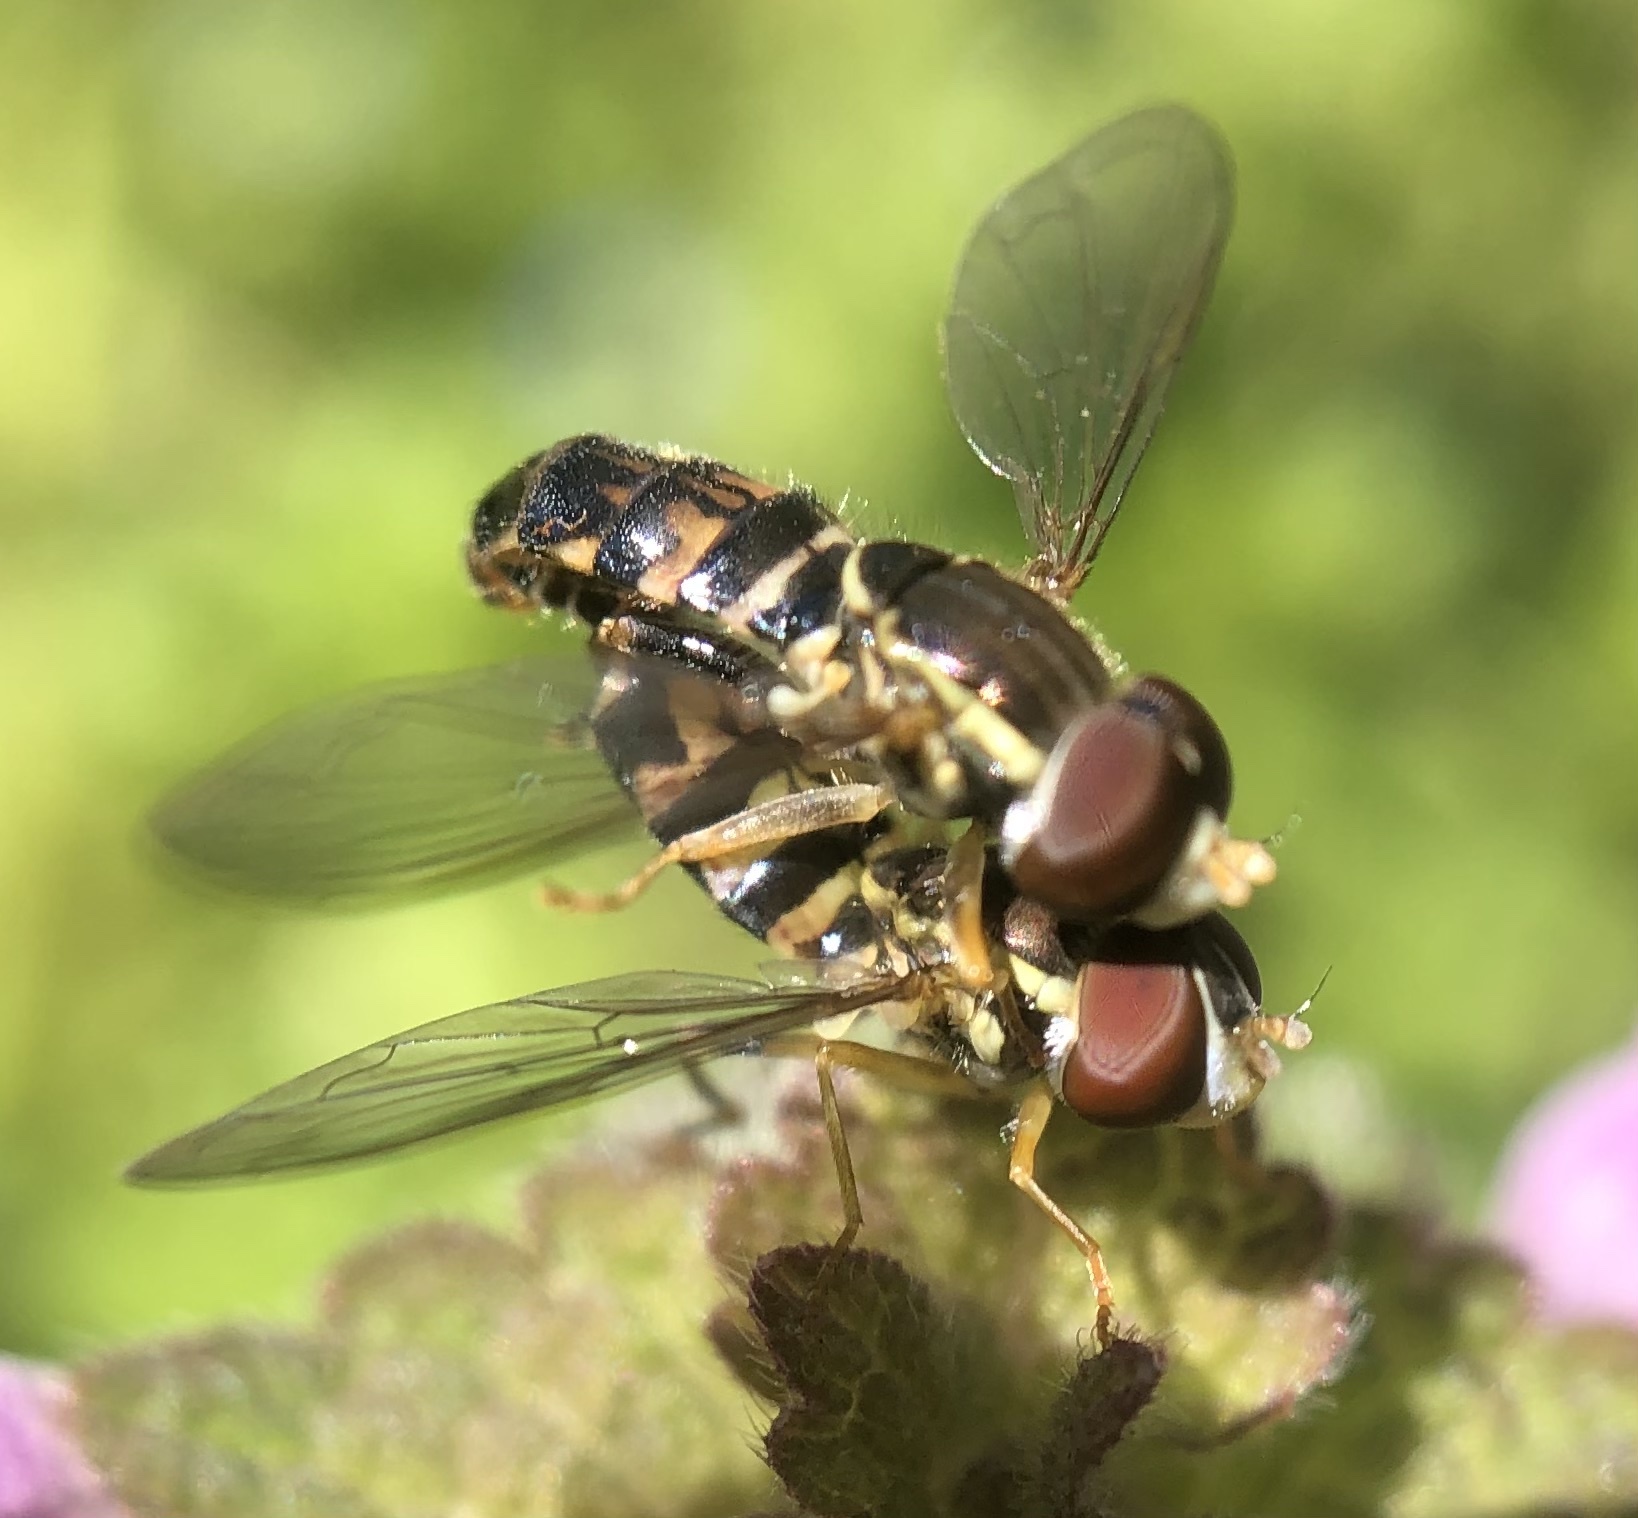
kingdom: Animalia
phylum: Arthropoda
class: Insecta
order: Diptera
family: Syrphidae
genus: Toxomerus
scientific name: Toxomerus geminatus
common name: Eastern calligrapher
